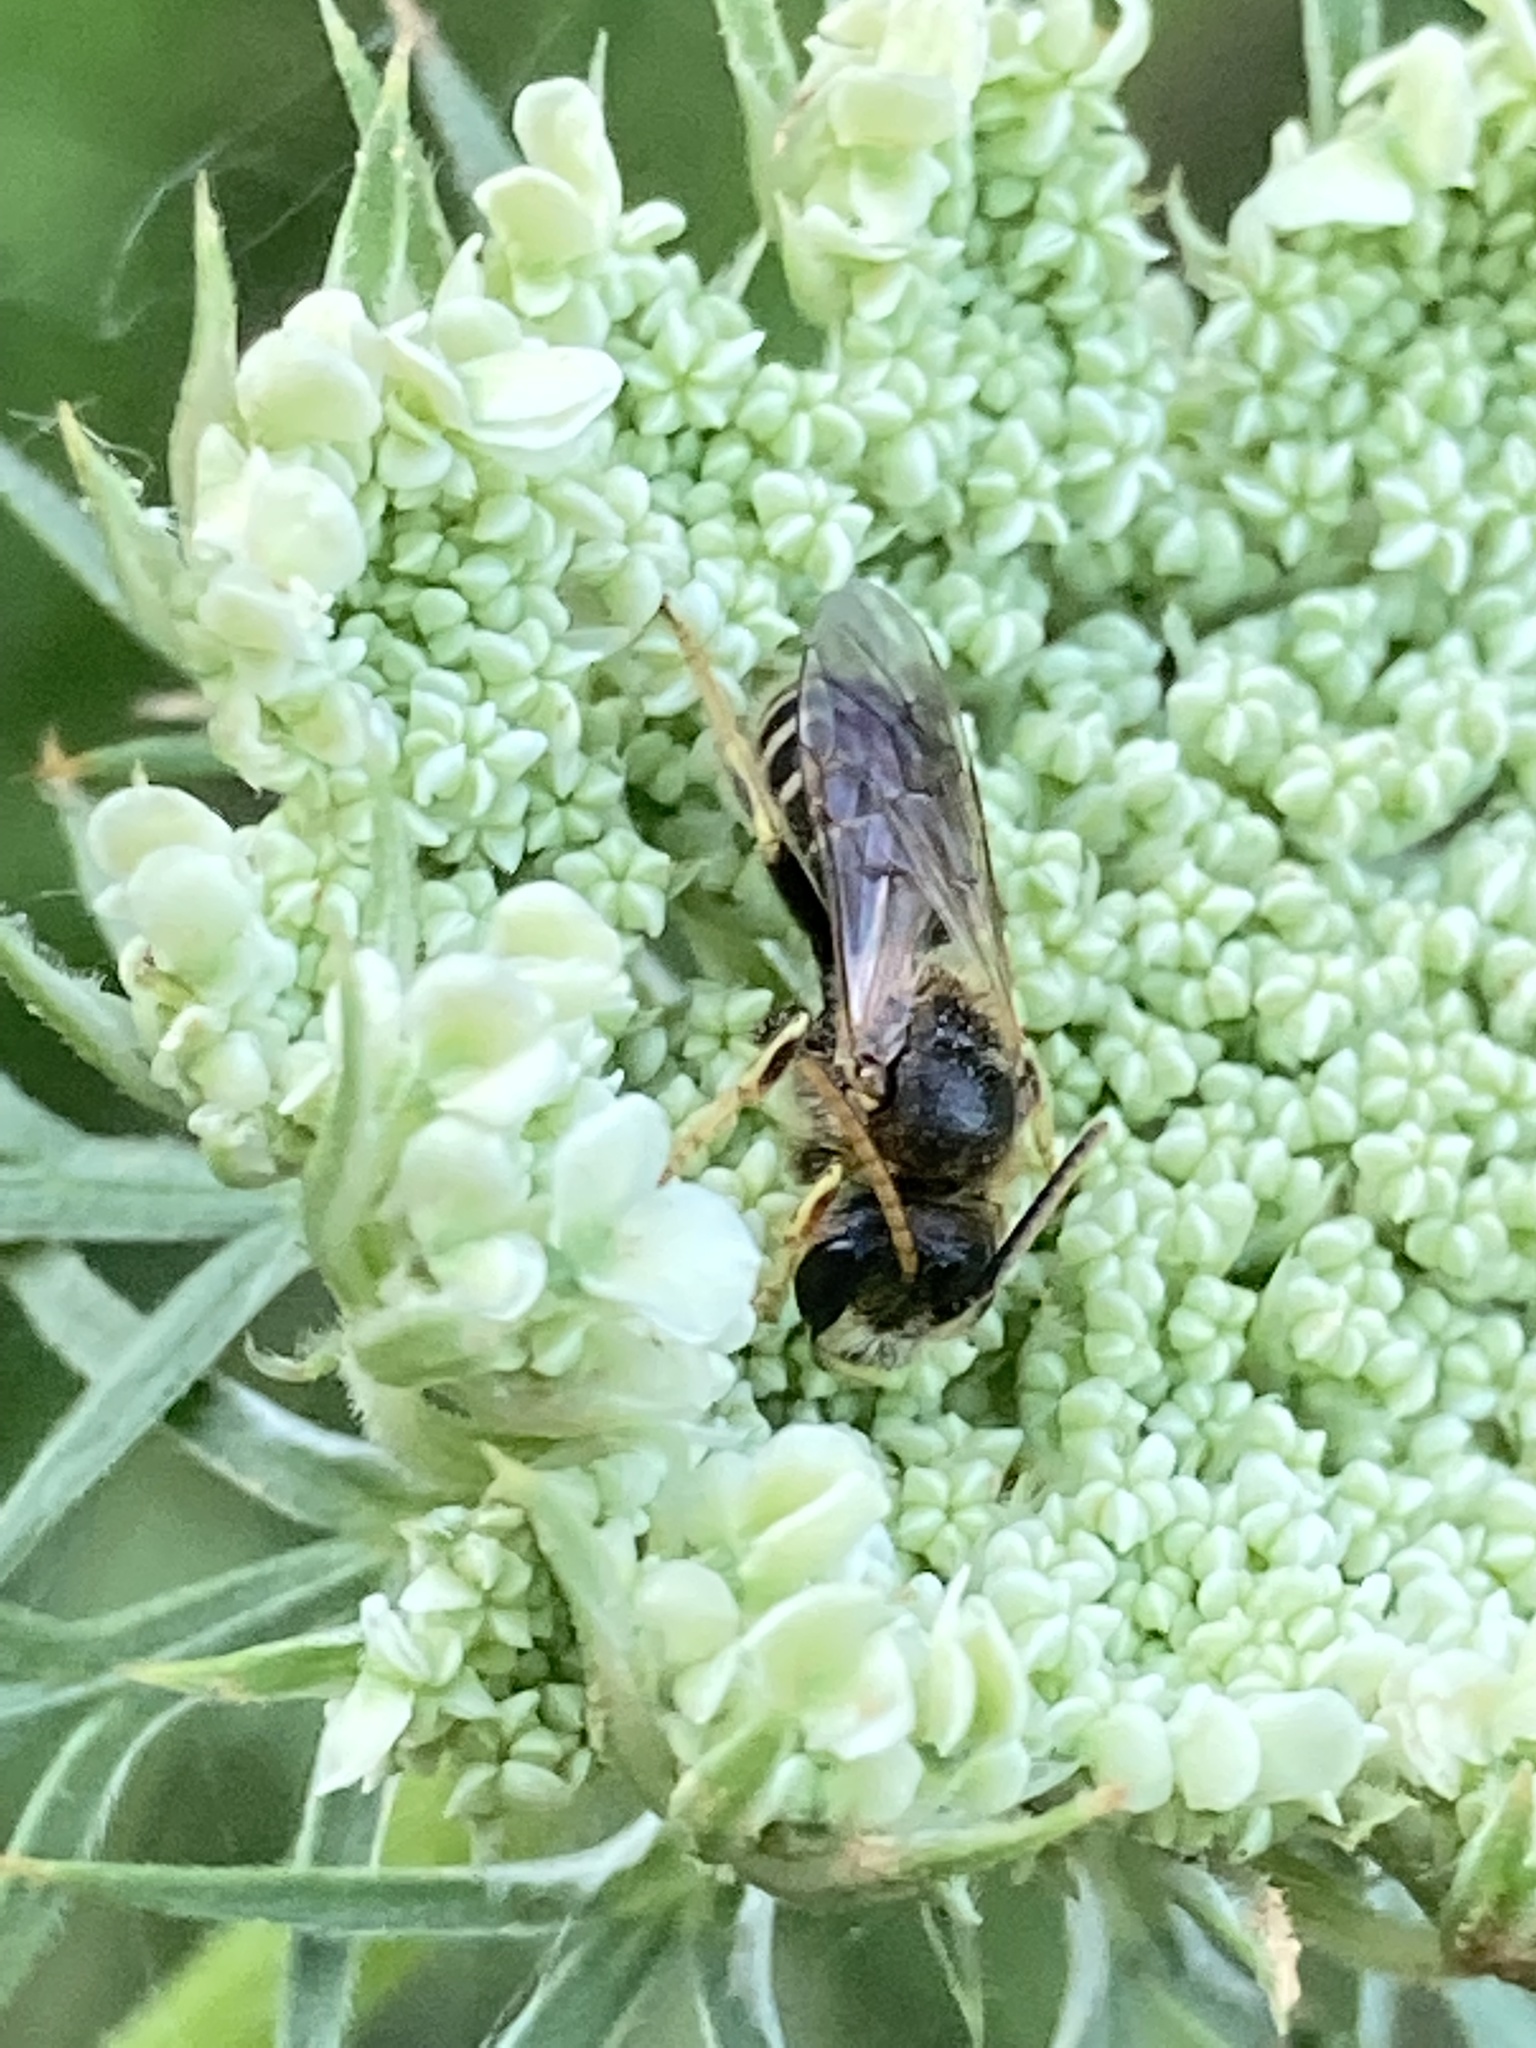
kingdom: Animalia
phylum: Arthropoda
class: Insecta
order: Hymenoptera
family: Halictidae
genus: Halictus
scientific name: Halictus ligatus
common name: Ligated furrow bee
